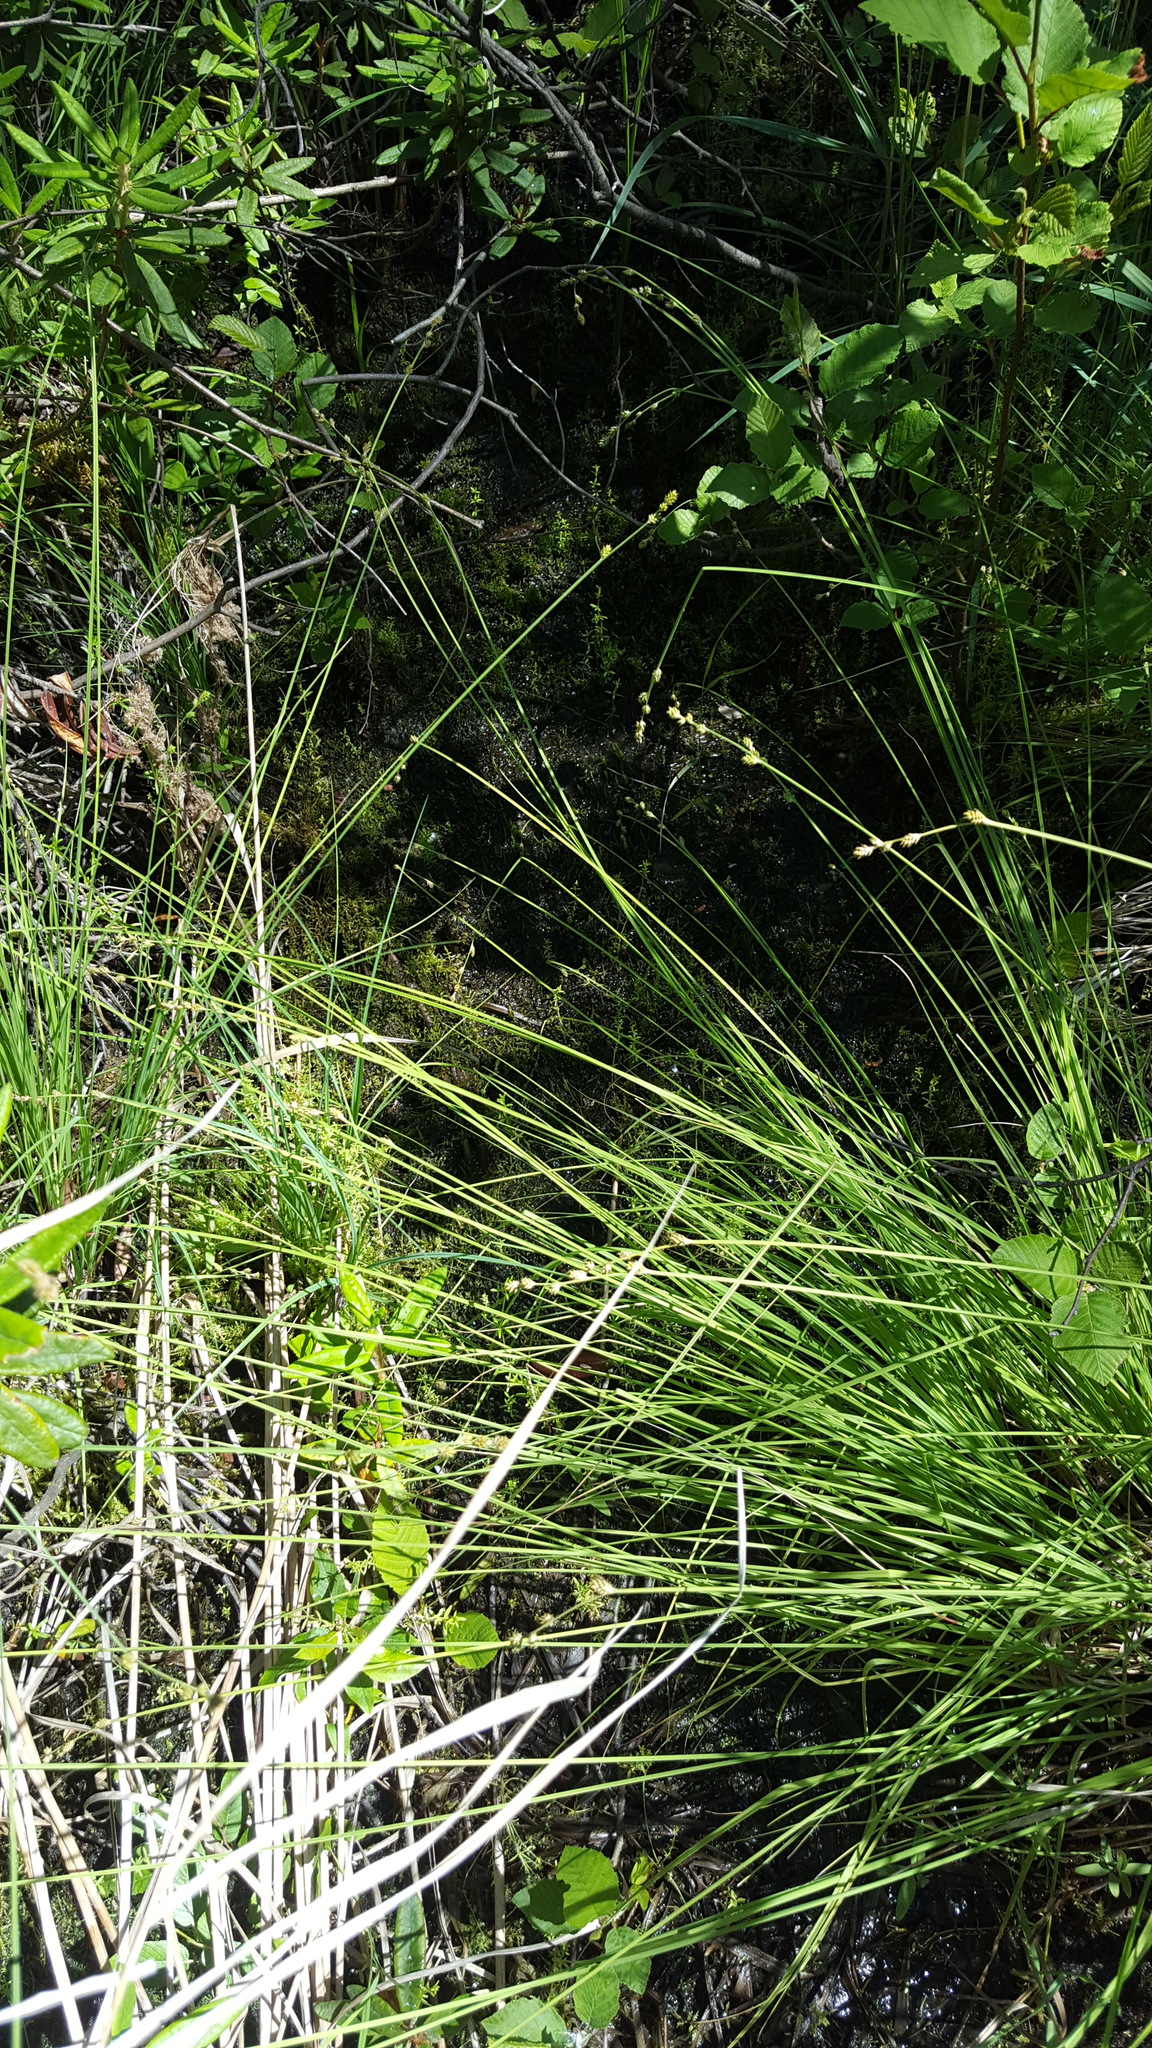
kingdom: Plantae
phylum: Tracheophyta
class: Liliopsida
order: Poales
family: Cyperaceae
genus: Carex
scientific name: Carex canescens
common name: White sedge
